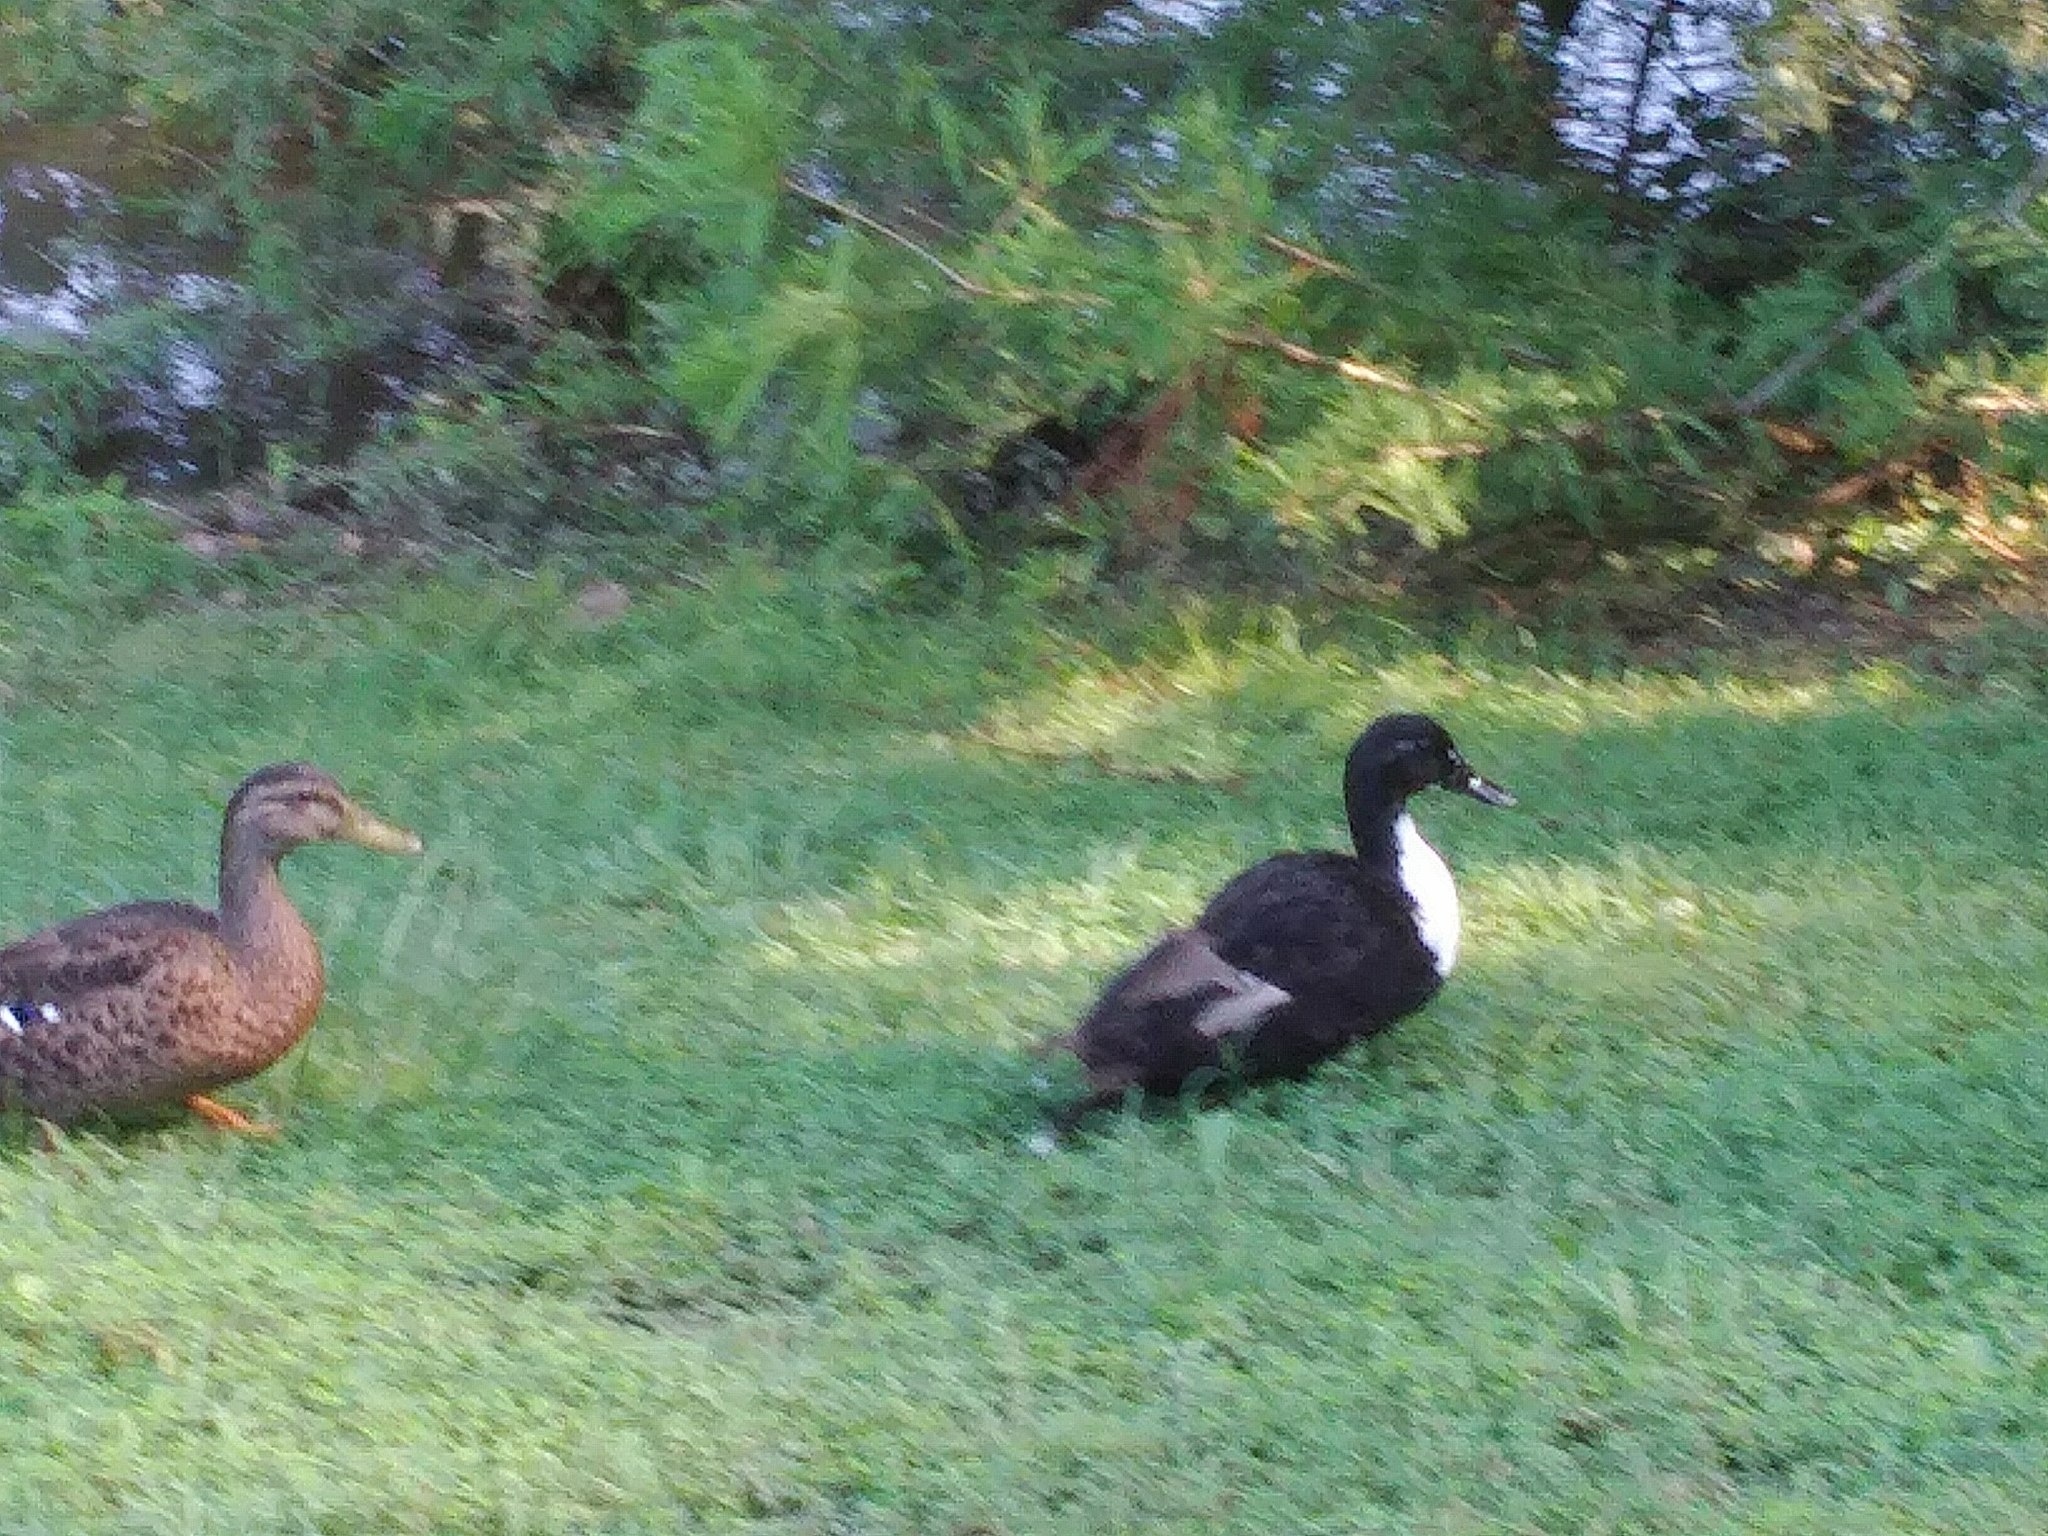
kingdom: Animalia
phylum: Chordata
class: Aves
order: Anseriformes
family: Anatidae
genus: Anas
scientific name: Anas platyrhynchos
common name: Mallard
